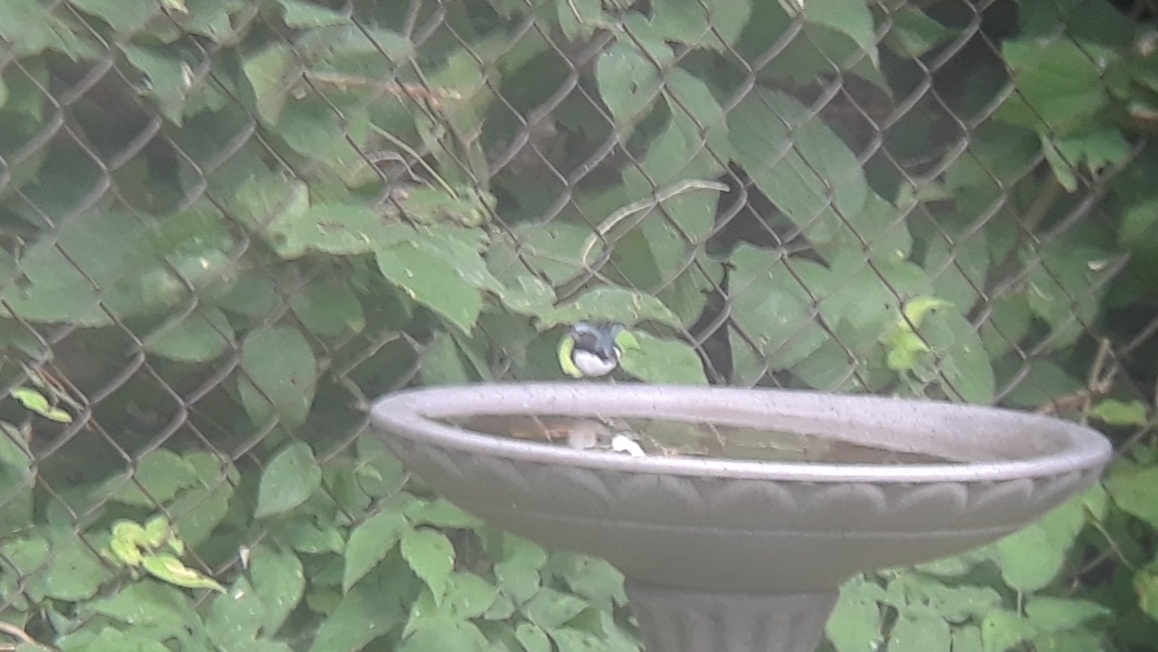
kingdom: Animalia
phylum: Chordata
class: Aves
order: Passeriformes
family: Parulidae
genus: Setophaga
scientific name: Setophaga caerulescens
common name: Black-throated blue warbler
